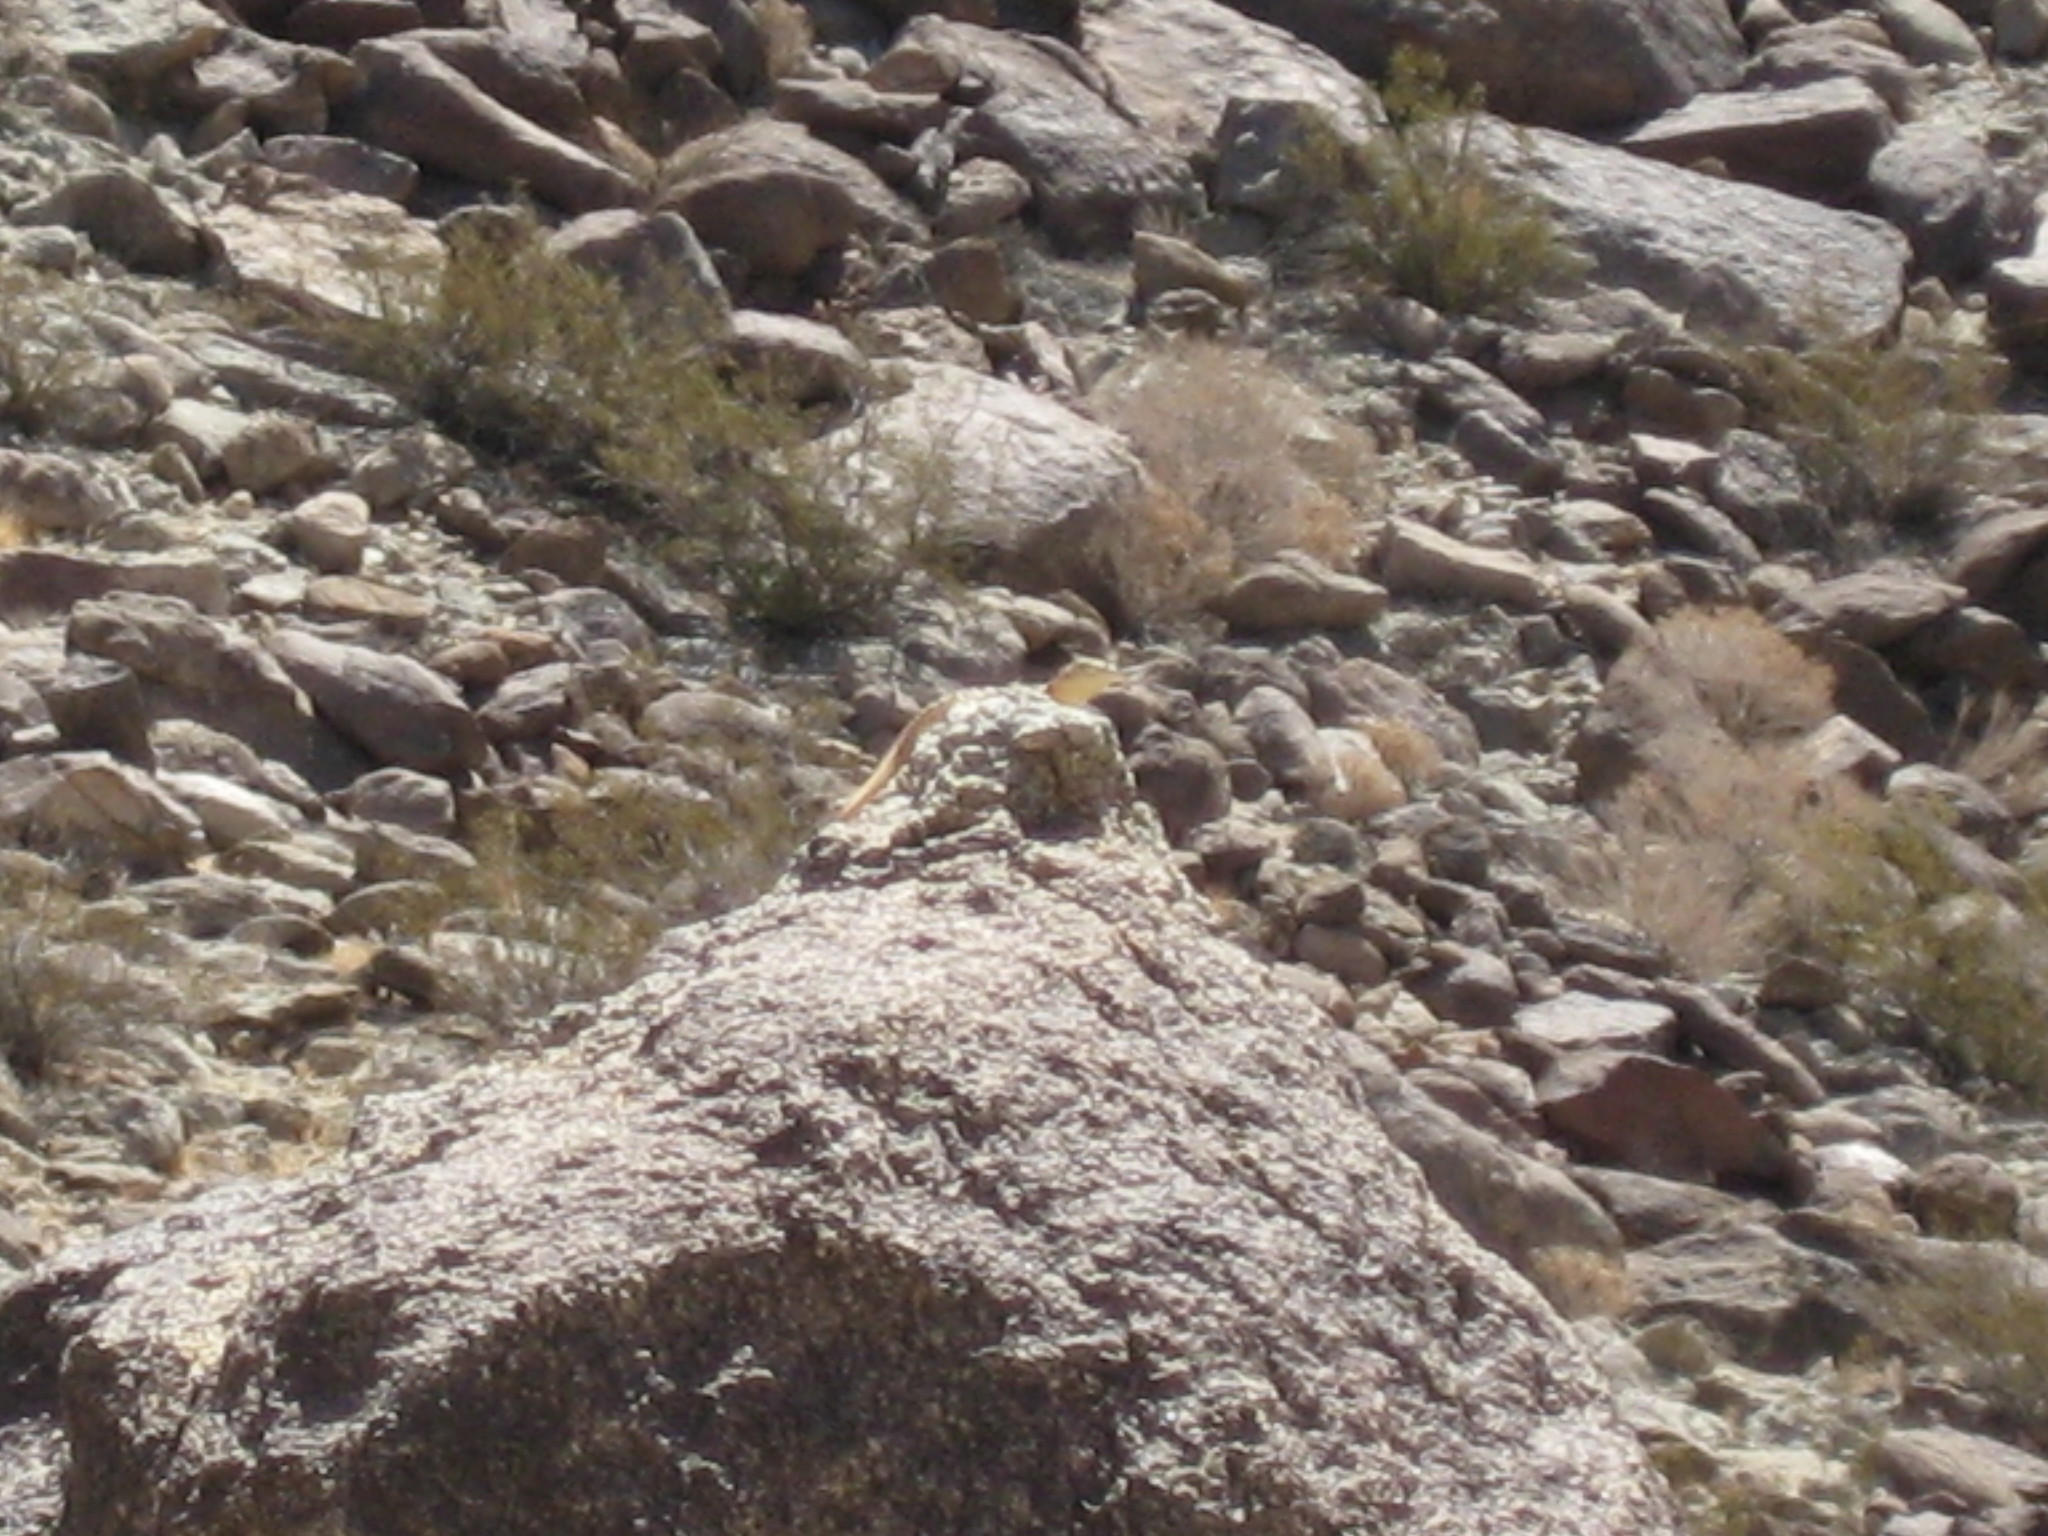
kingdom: Animalia
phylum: Chordata
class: Squamata
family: Crotaphytidae
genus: Crotaphytus
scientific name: Crotaphytus vestigium
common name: Baja black-collared lizard
